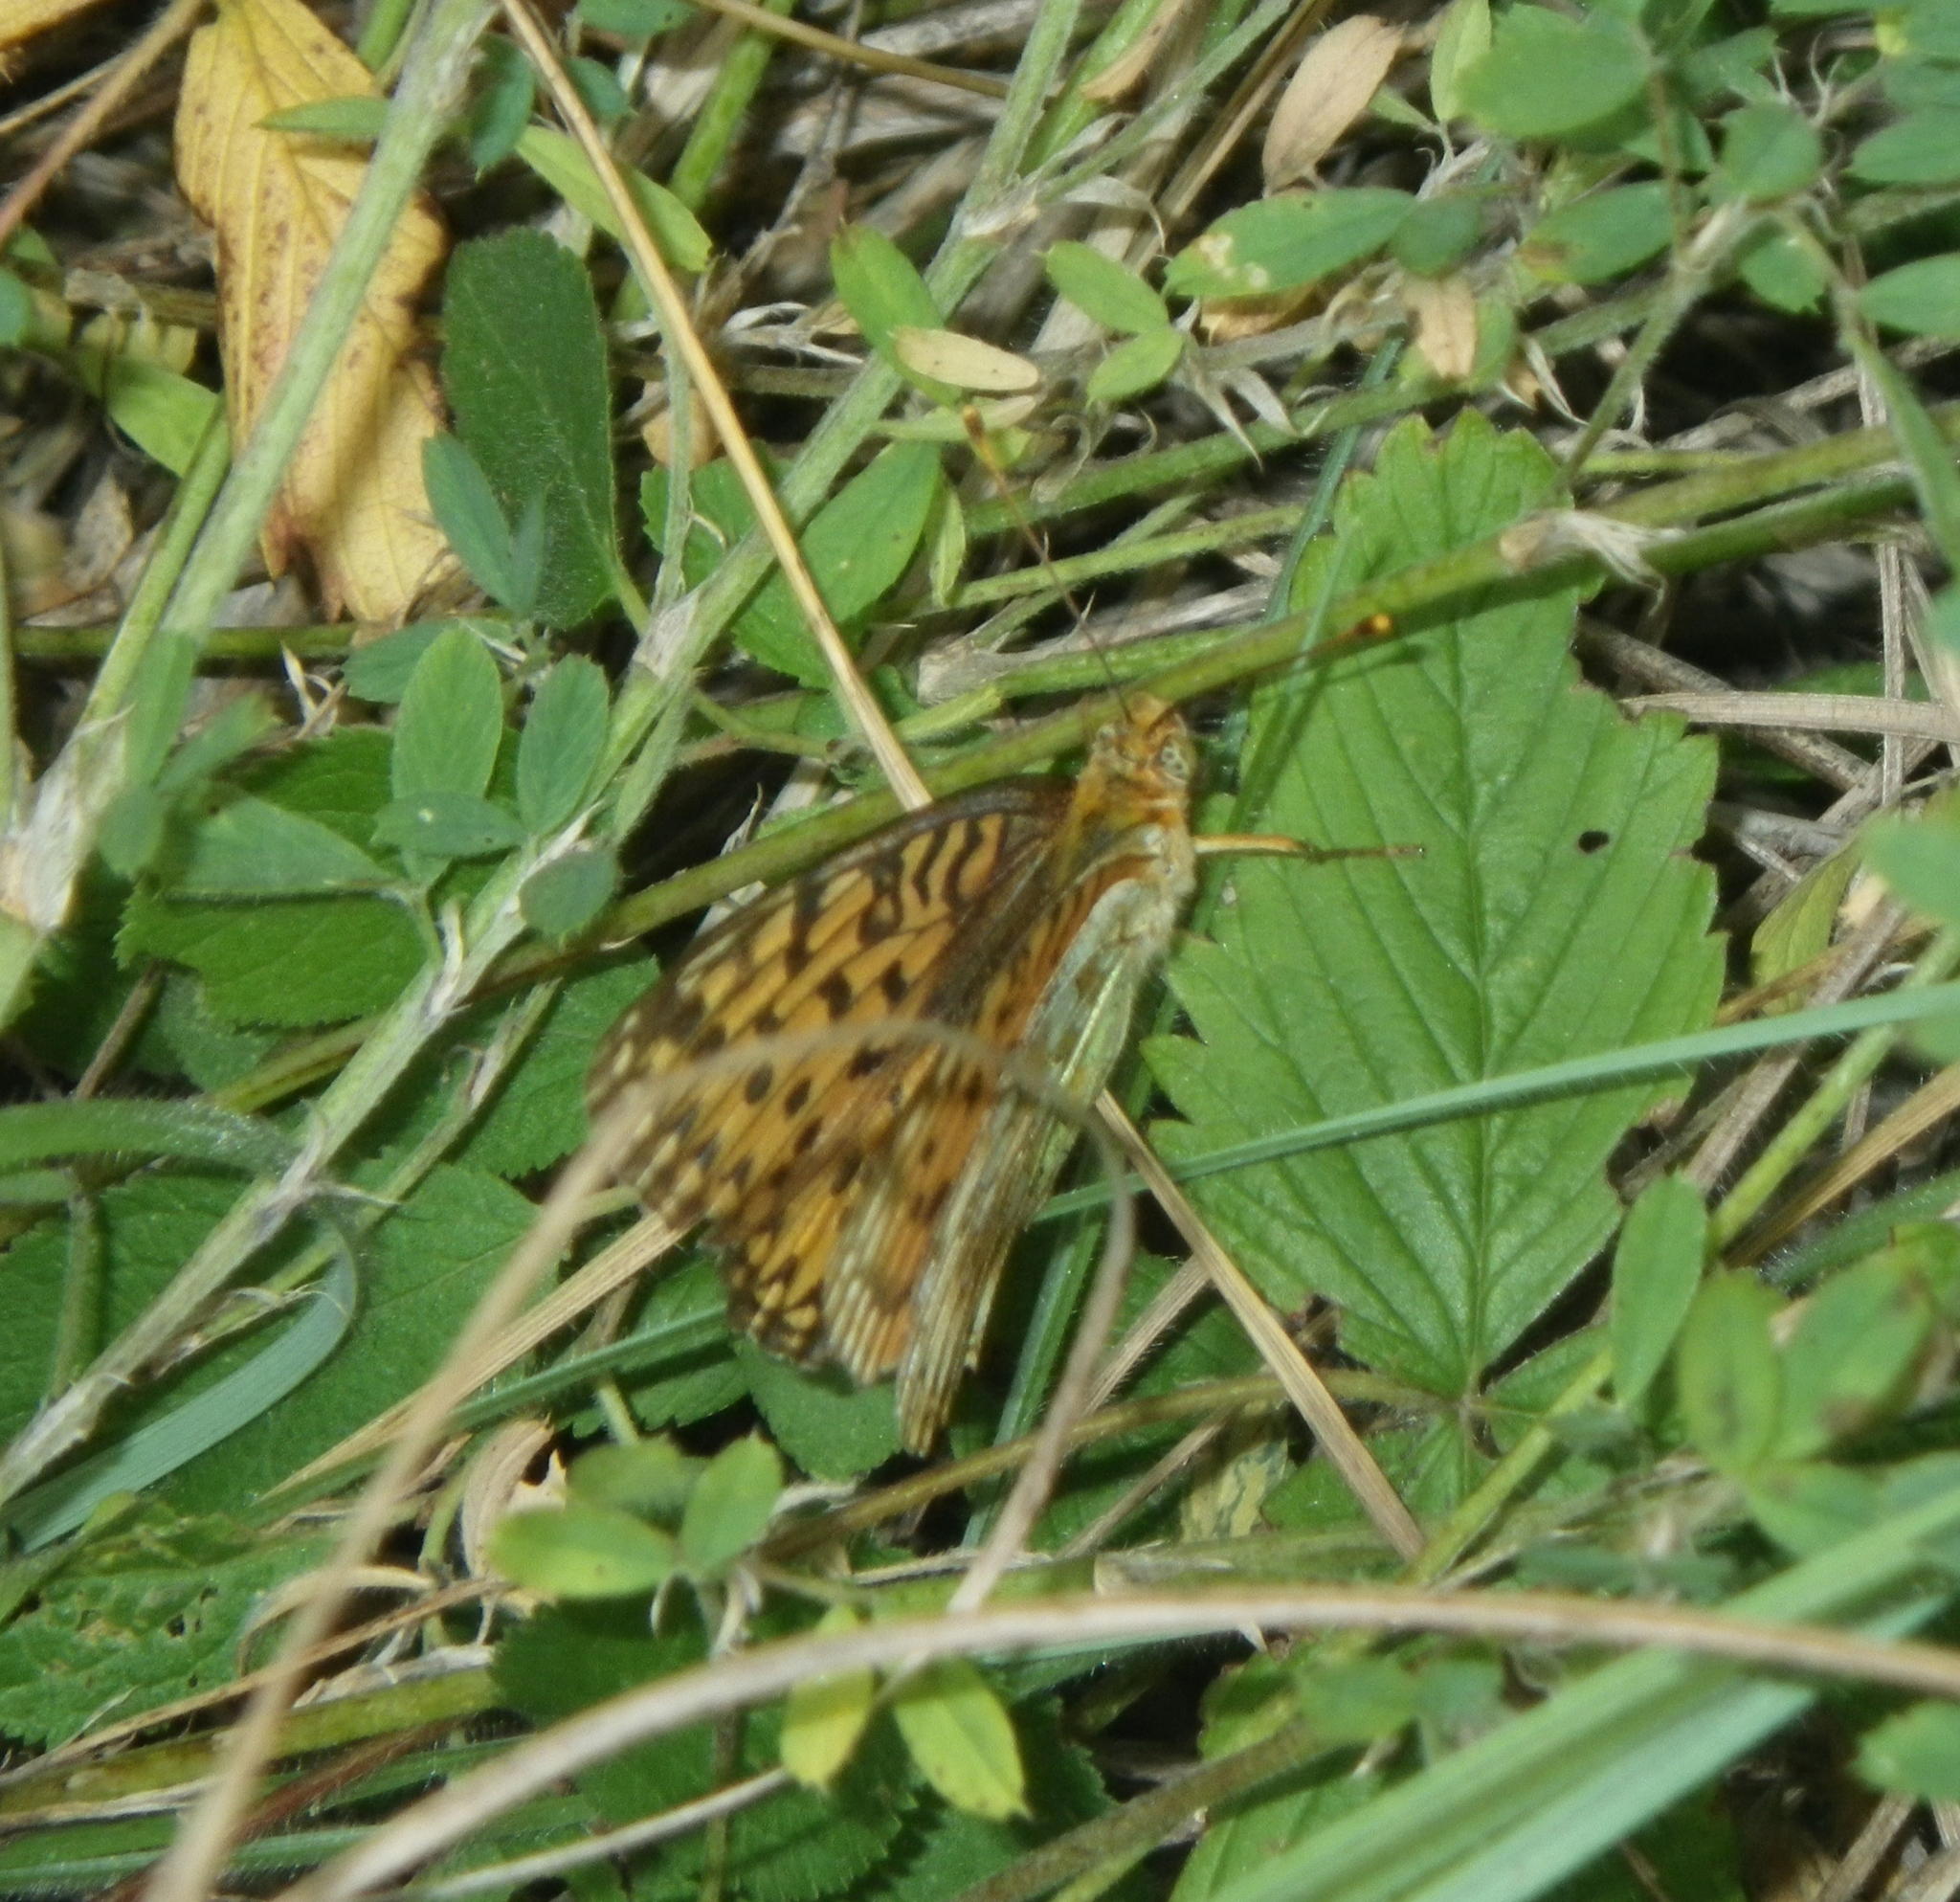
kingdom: Animalia
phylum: Arthropoda
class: Insecta
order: Lepidoptera
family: Nymphalidae
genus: Speyeria
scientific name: Speyeria aglaja
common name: Dark green fritillary
